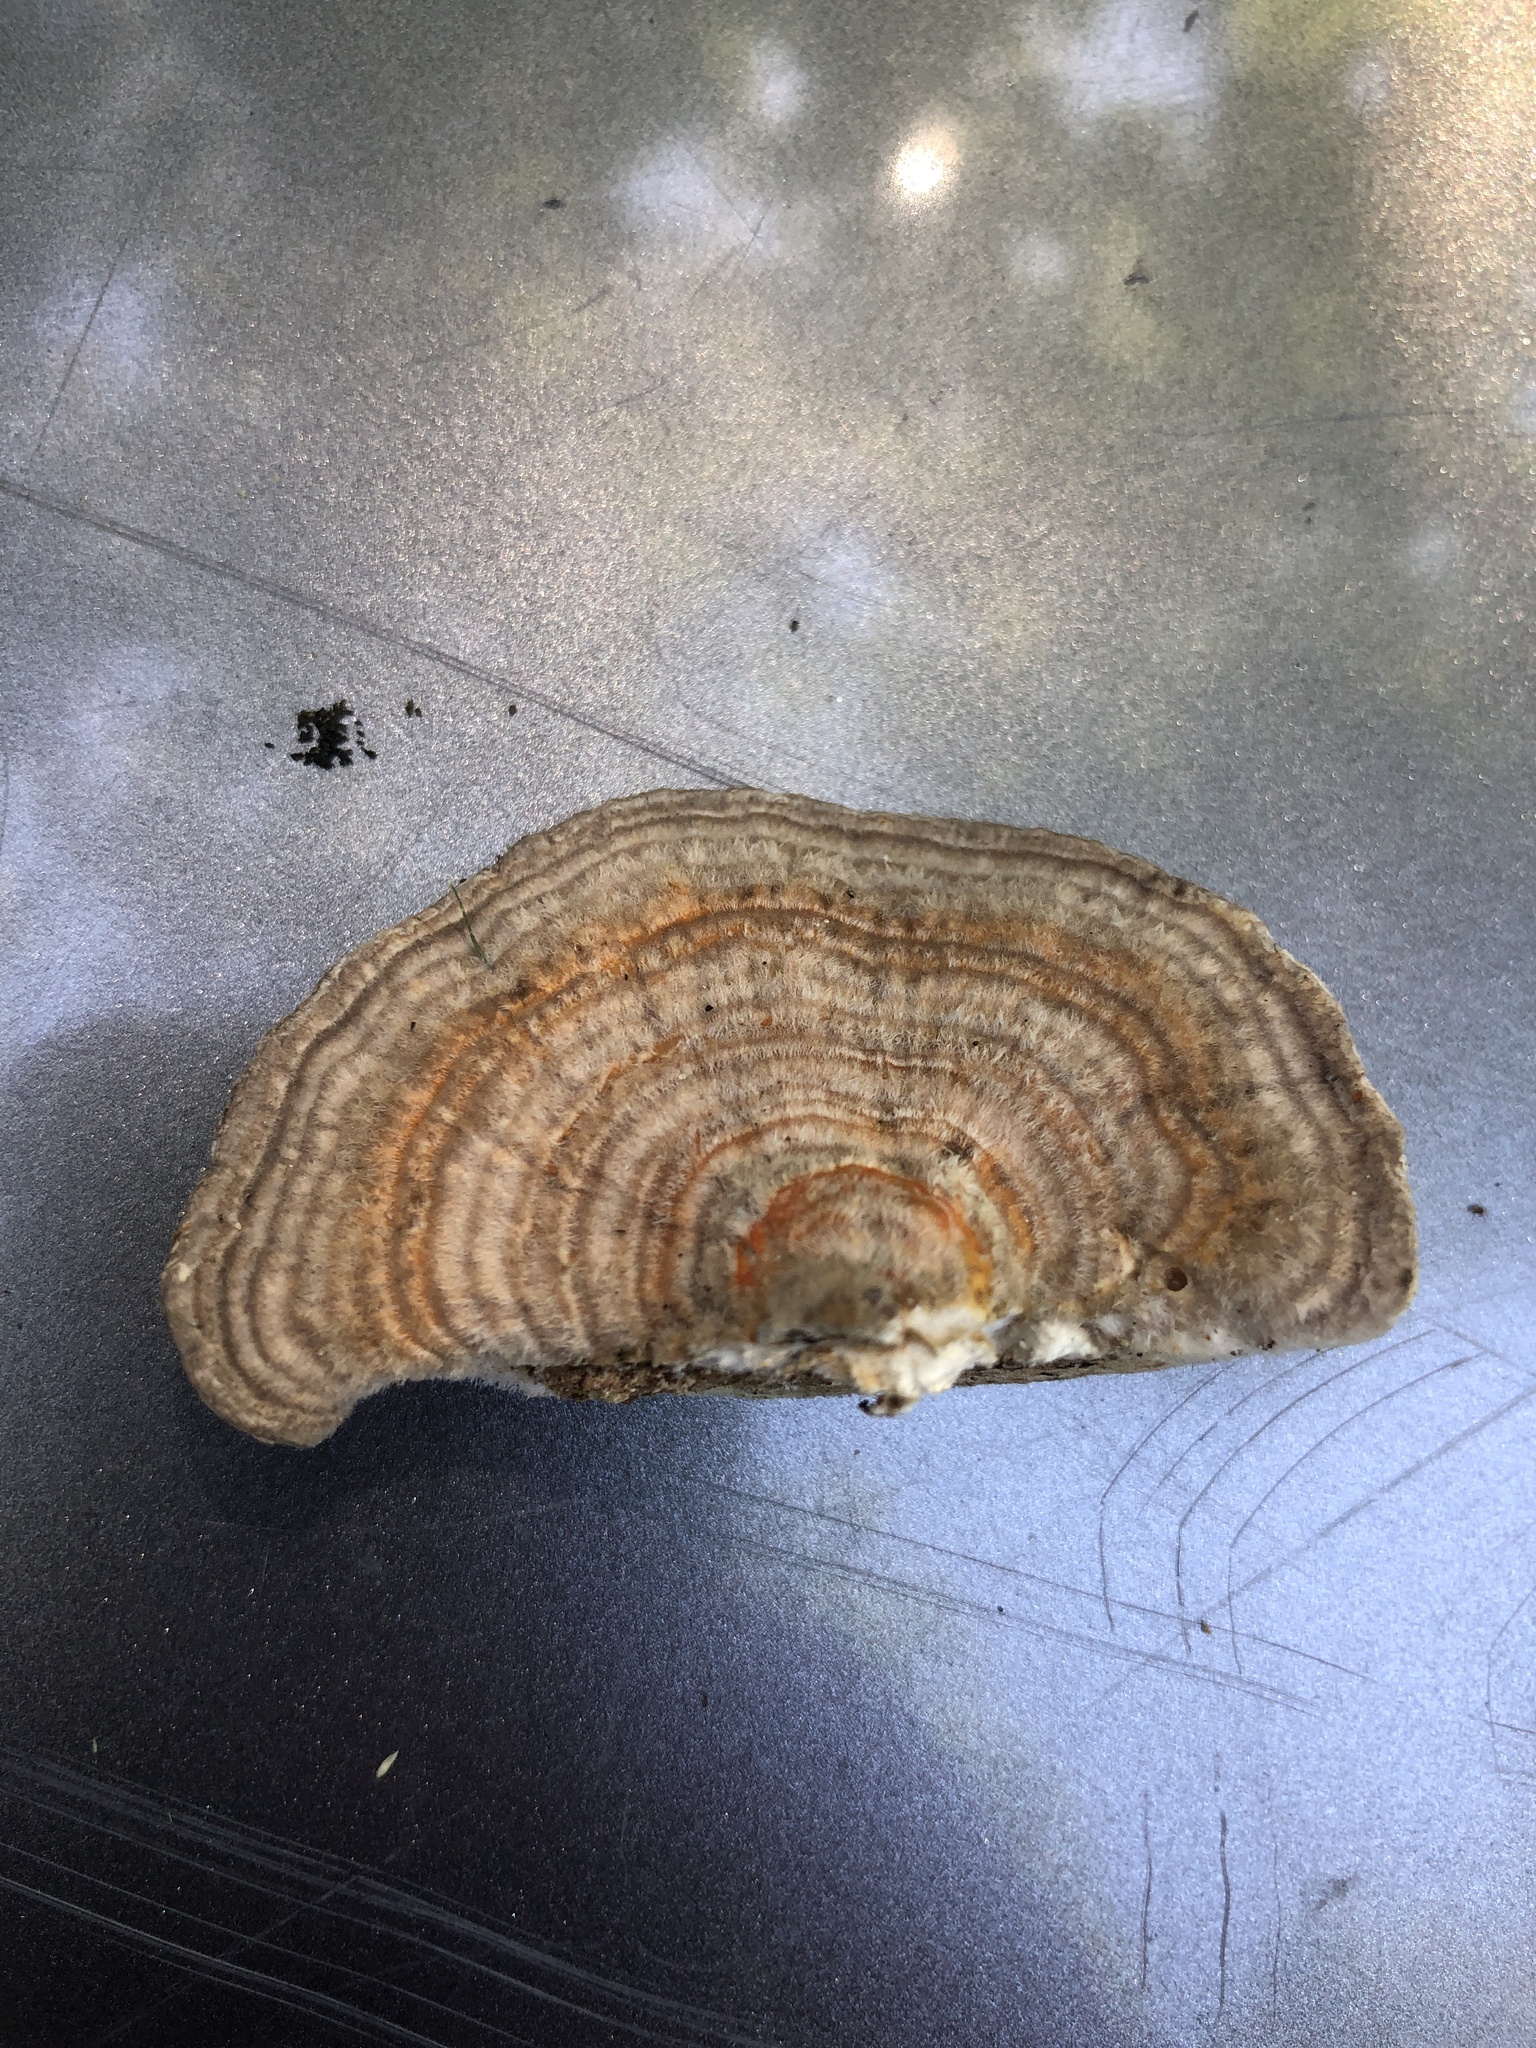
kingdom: Fungi
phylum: Basidiomycota
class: Agaricomycetes
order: Polyporales
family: Polyporaceae
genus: Lenzites
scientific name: Lenzites betulinus
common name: Birch mazegill
